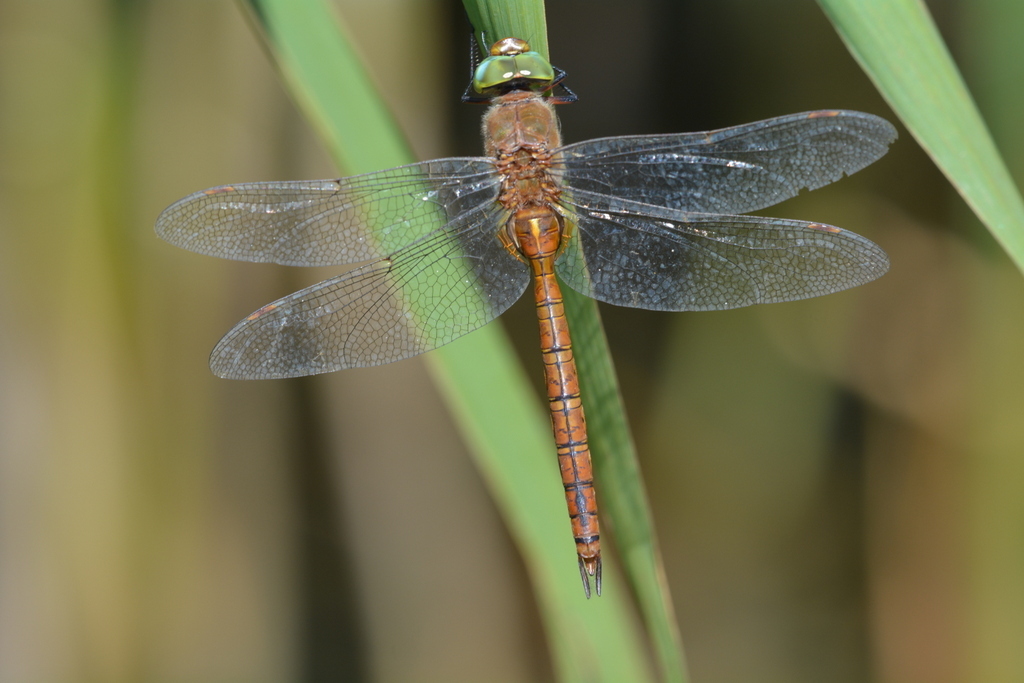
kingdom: Animalia
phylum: Arthropoda
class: Insecta
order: Odonata
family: Aeshnidae
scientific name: Aeshnidae
